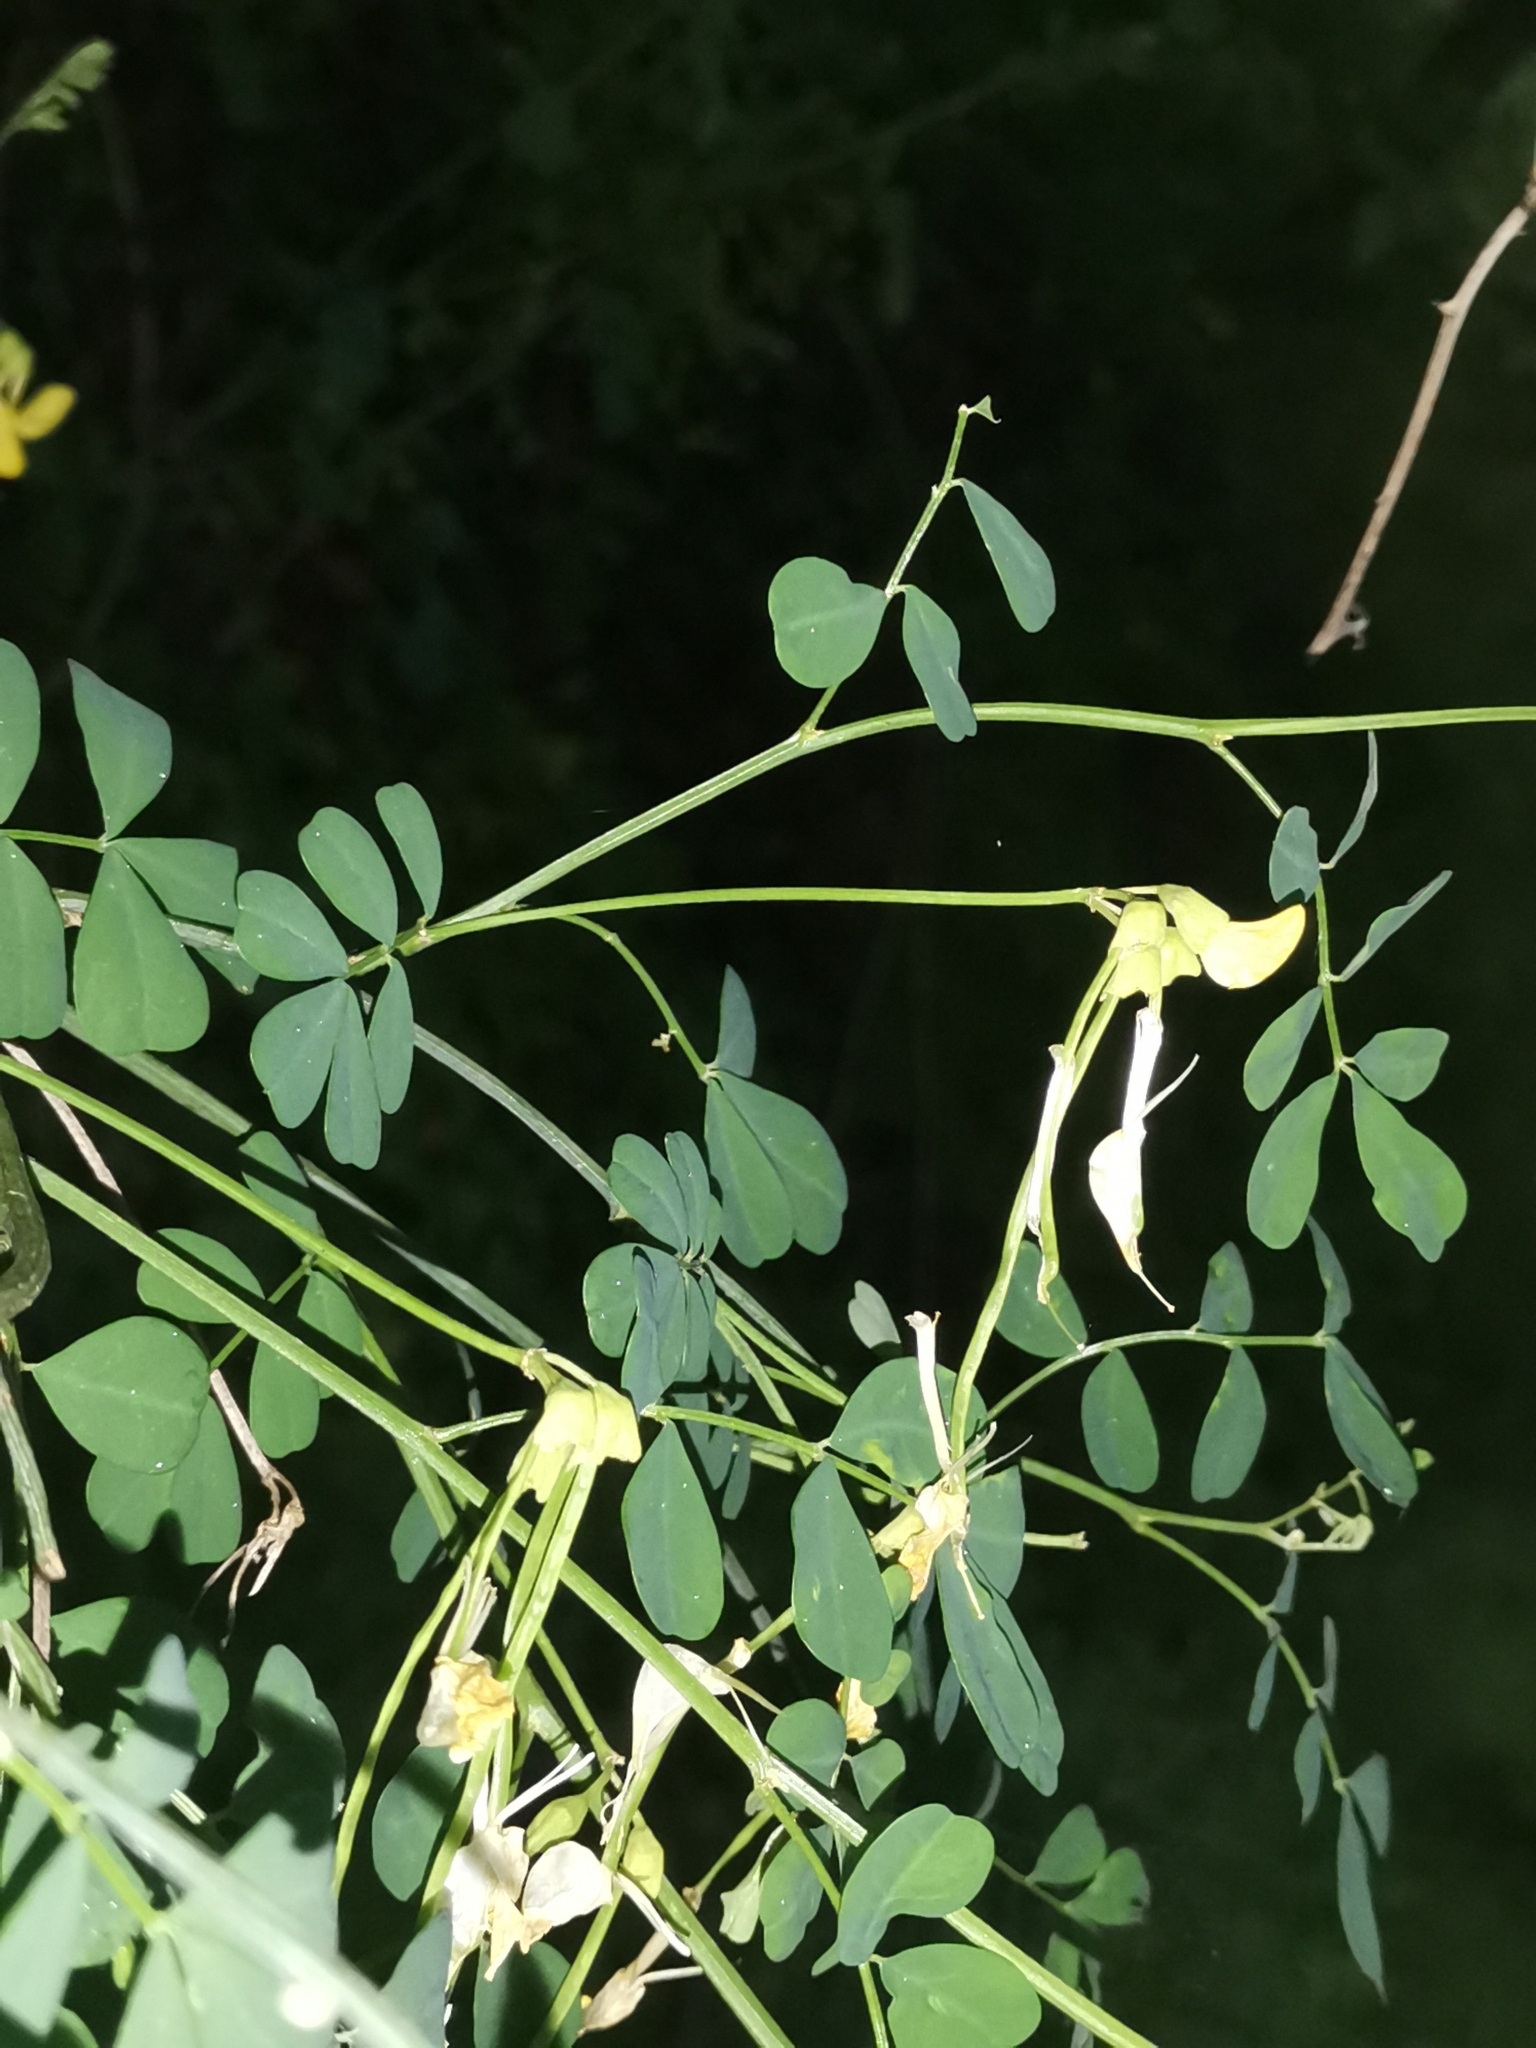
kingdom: Plantae
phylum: Tracheophyta
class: Magnoliopsida
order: Fabales
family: Fabaceae
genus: Hippocrepis
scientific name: Hippocrepis emerus
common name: Scorpion senna
